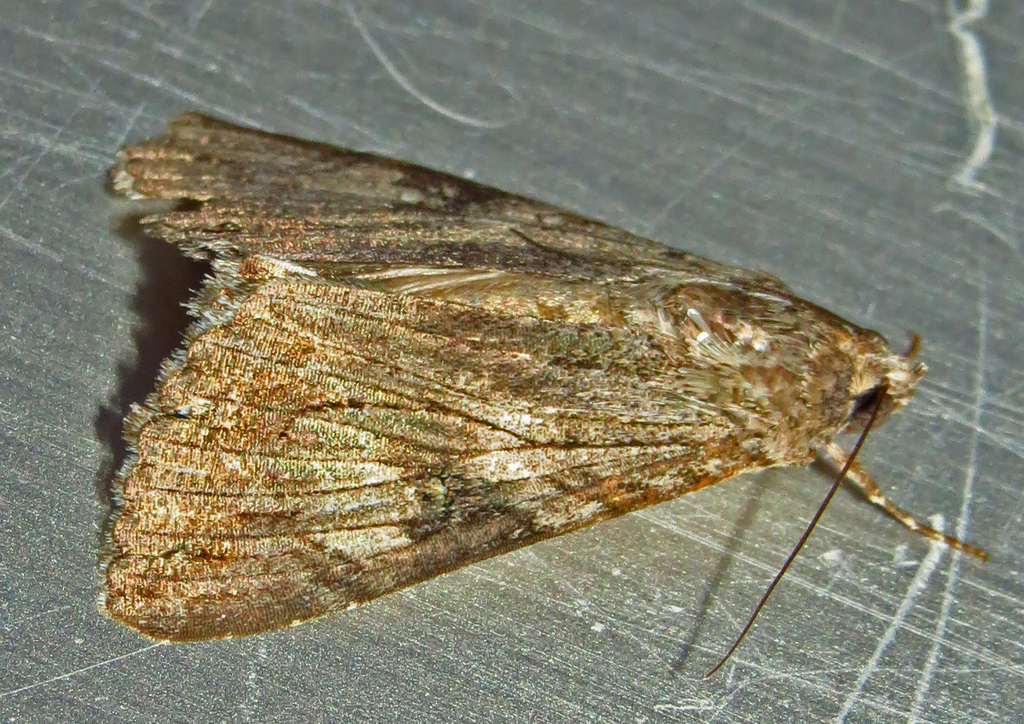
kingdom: Animalia
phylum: Arthropoda
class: Insecta
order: Lepidoptera
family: Erebidae
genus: Melipotis
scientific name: Melipotis jucunda
